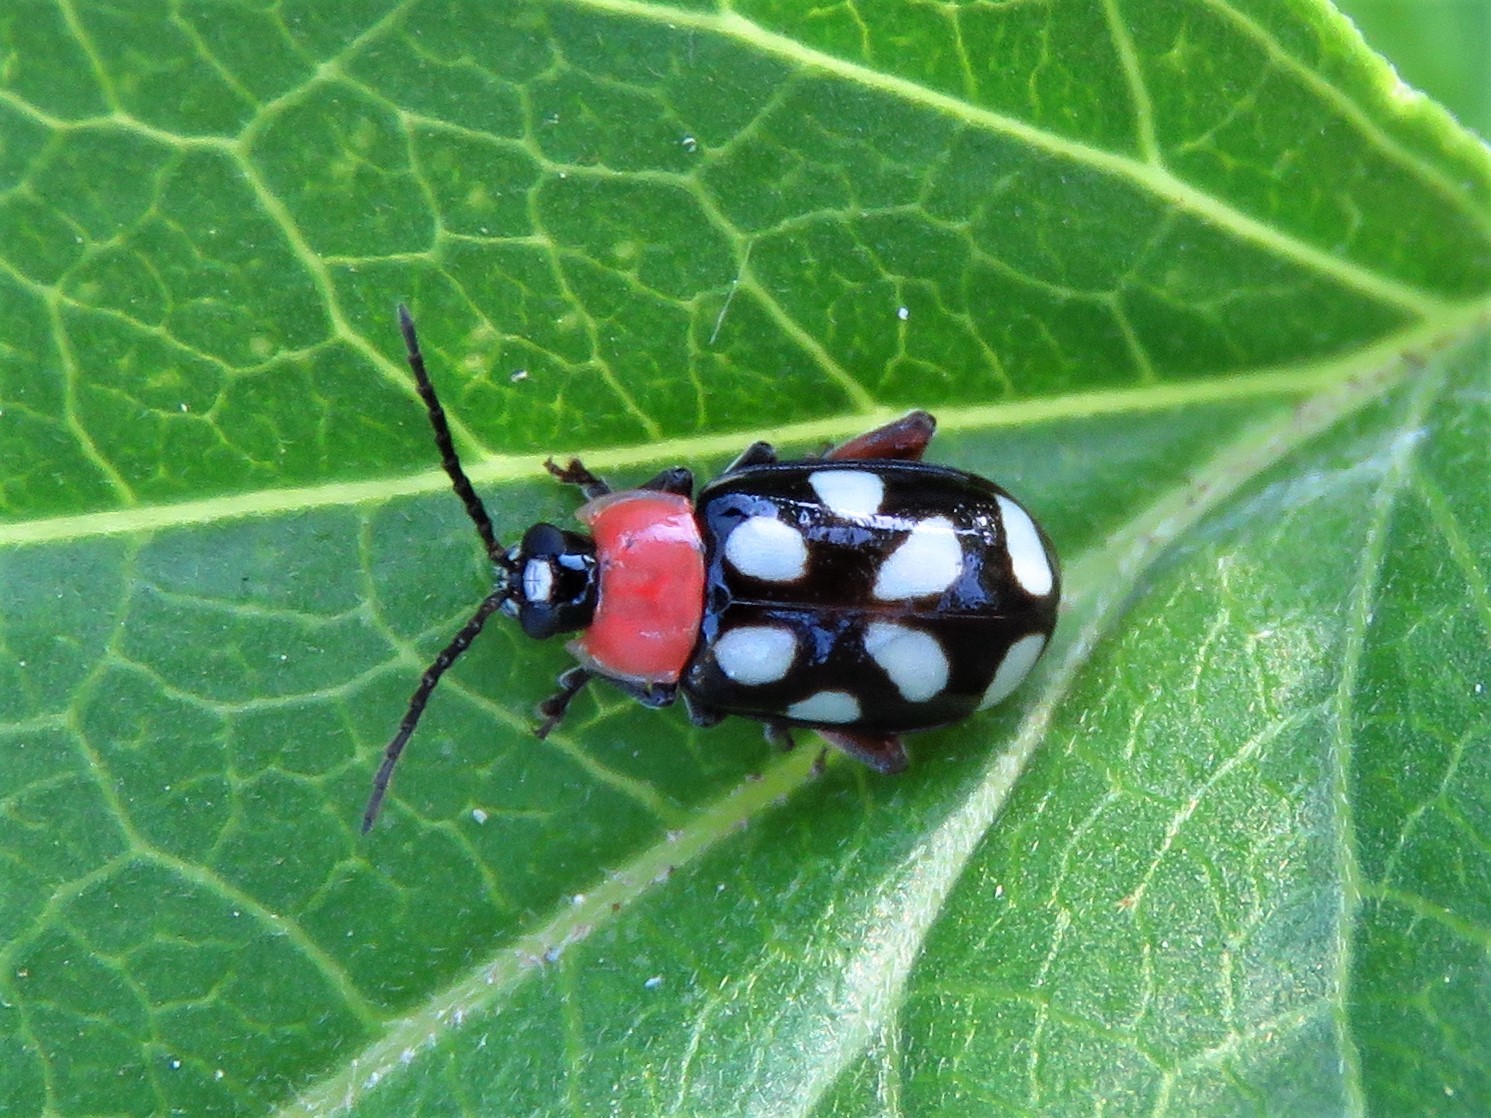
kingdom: Animalia
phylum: Arthropoda
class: Insecta
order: Coleoptera
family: Chrysomelidae
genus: Omophoita
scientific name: Omophoita cyanipennis
